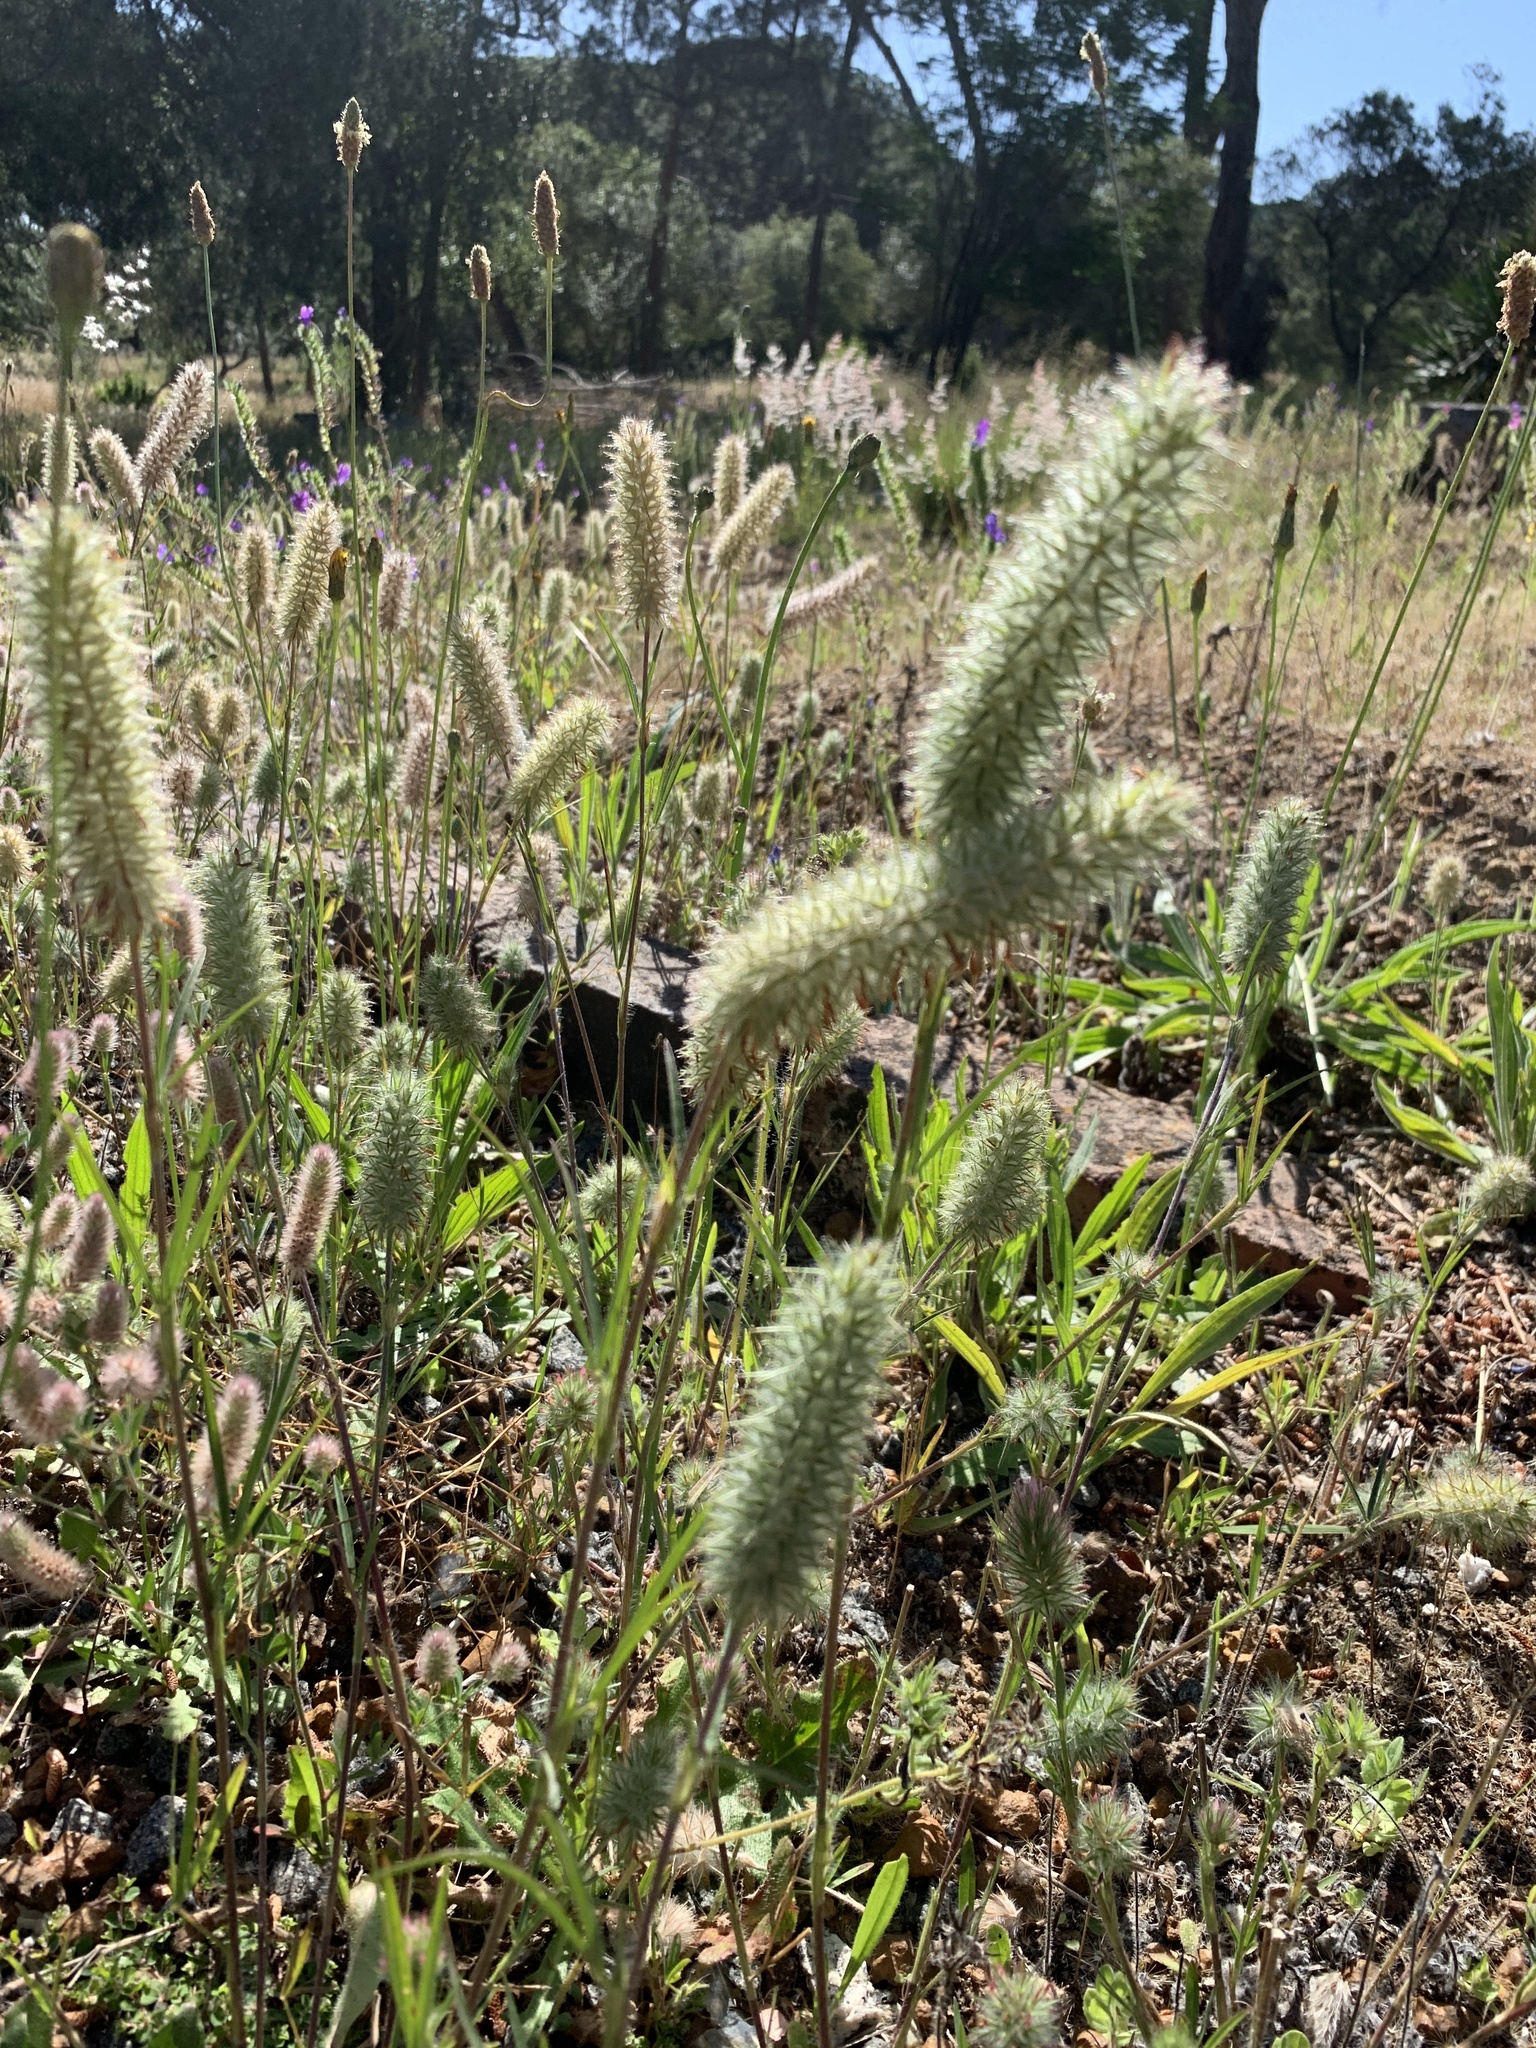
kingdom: Plantae
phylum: Tracheophyta
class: Magnoliopsida
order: Fabales
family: Fabaceae
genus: Trifolium
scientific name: Trifolium angustifolium
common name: Narrow clover
